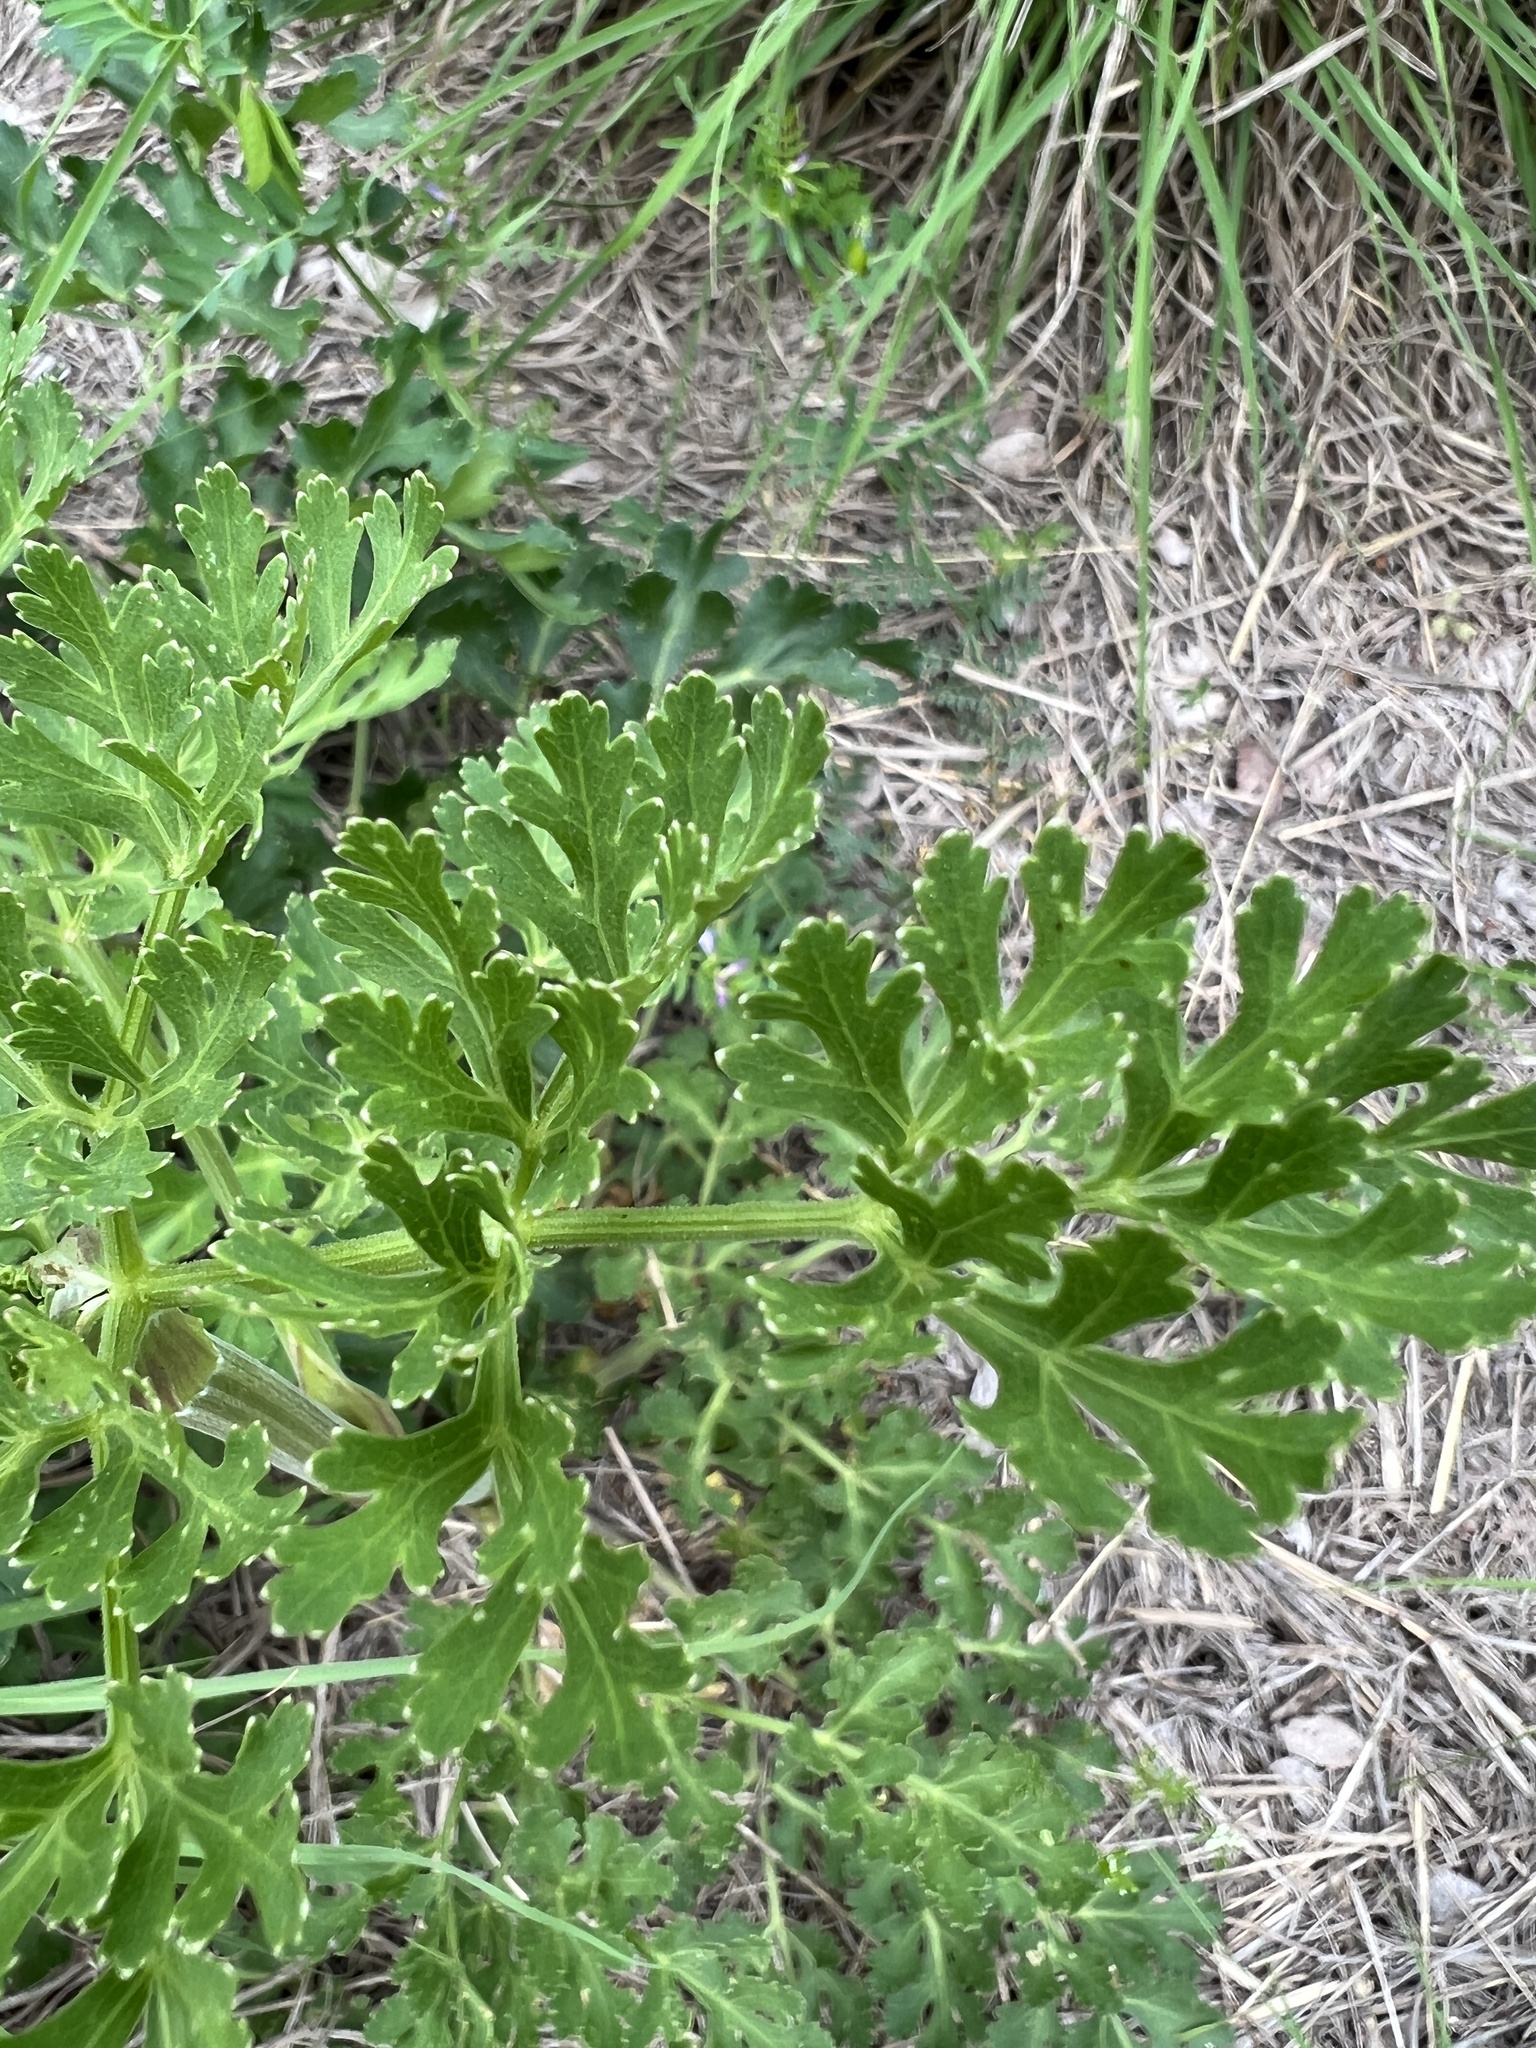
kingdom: Plantae
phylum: Tracheophyta
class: Magnoliopsida
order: Apiales
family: Apiaceae
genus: Polytaenia
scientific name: Polytaenia texana
